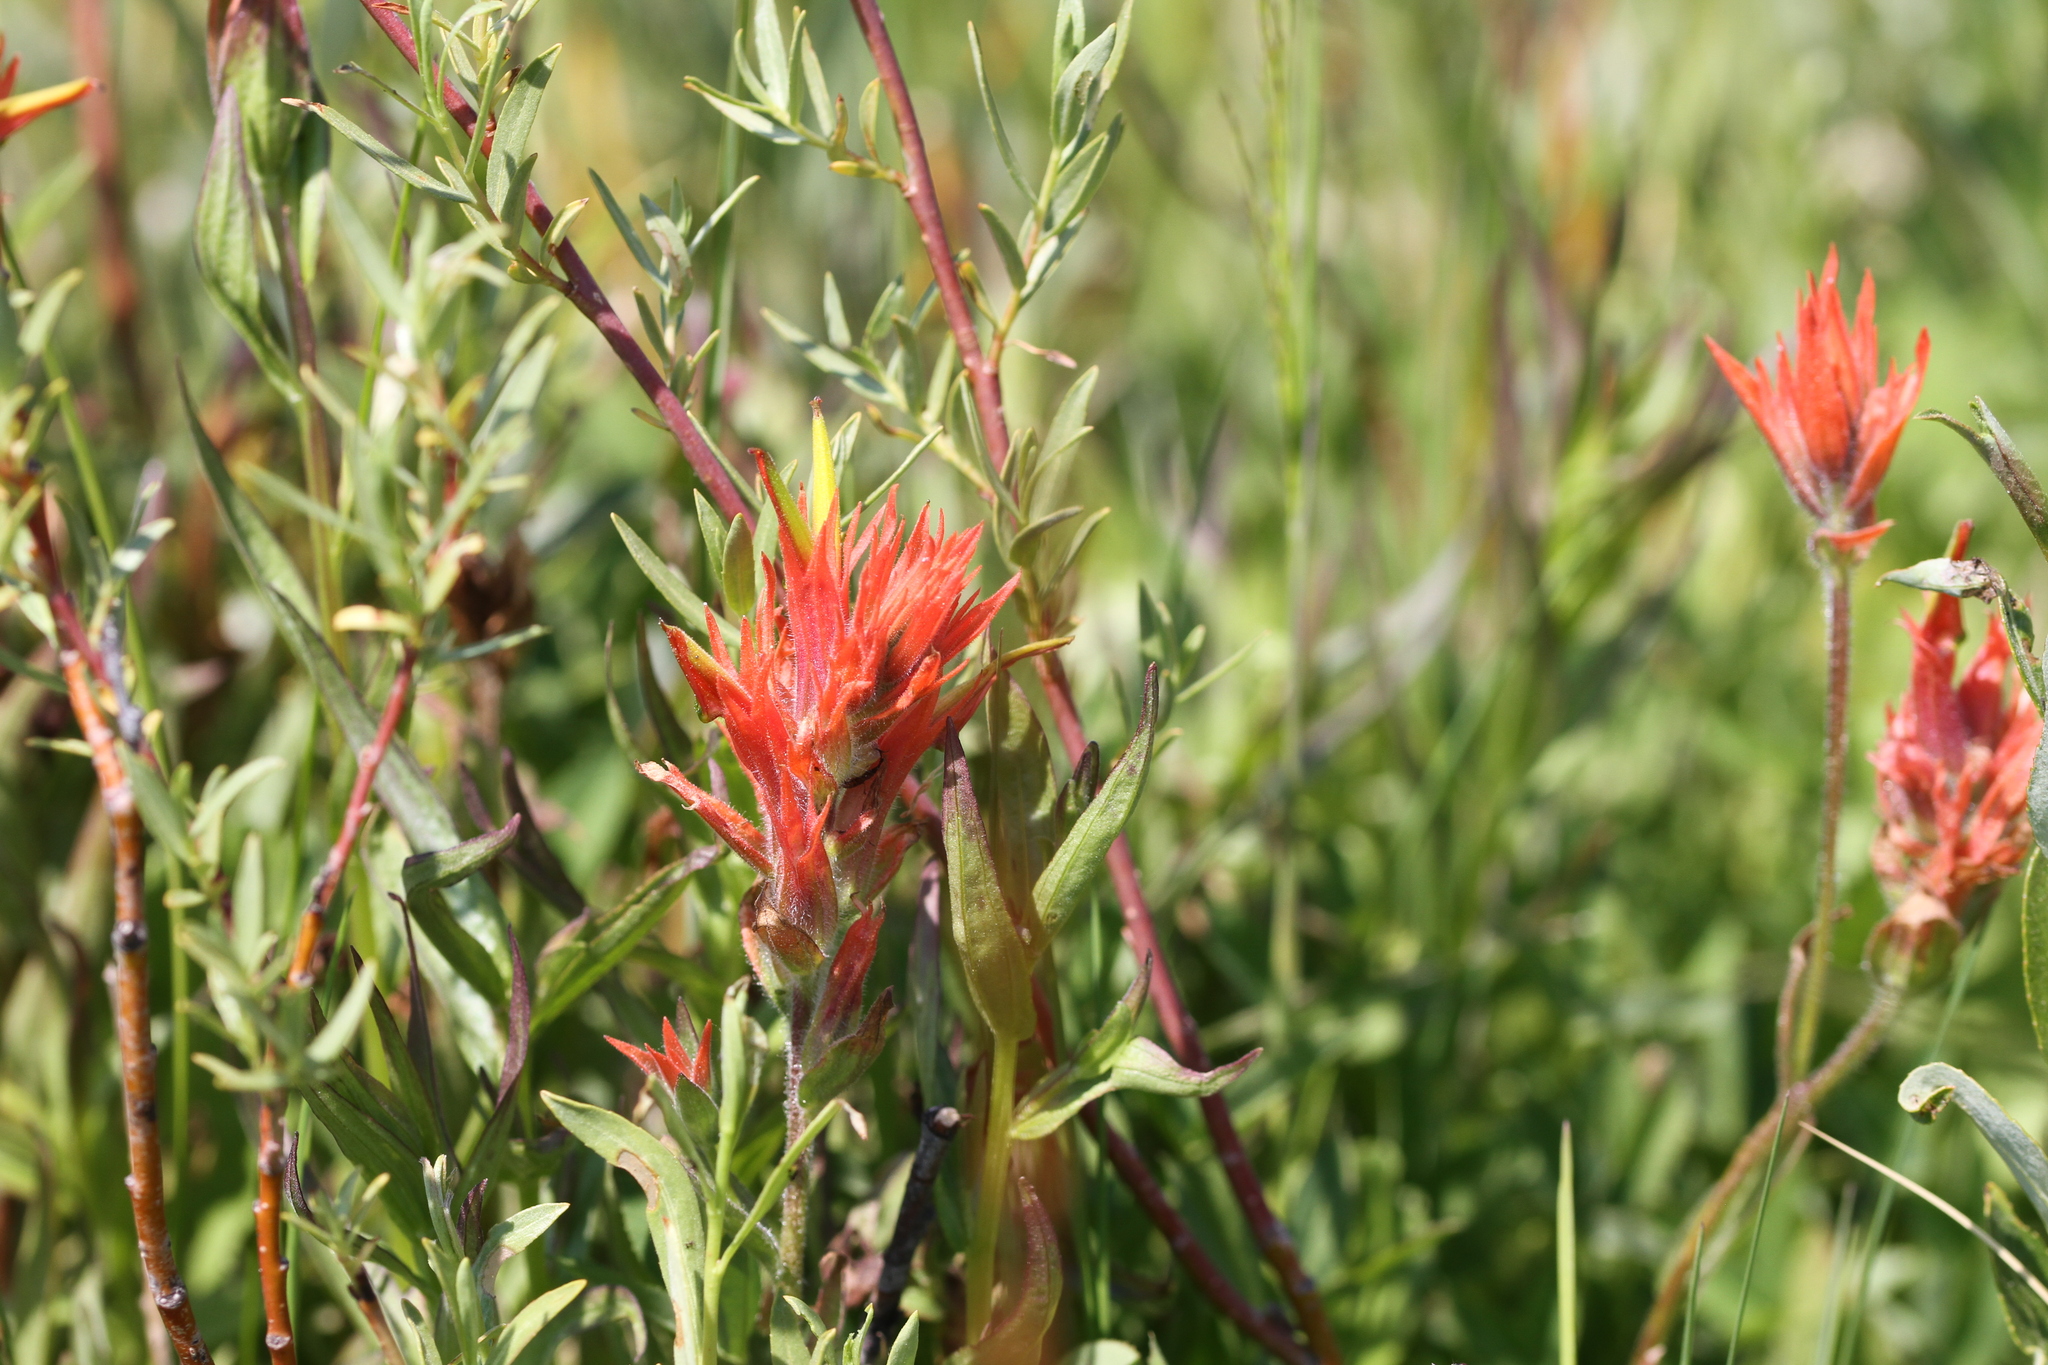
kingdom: Plantae
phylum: Tracheophyta
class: Magnoliopsida
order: Lamiales
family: Orobanchaceae
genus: Castilleja
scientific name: Castilleja miniata
